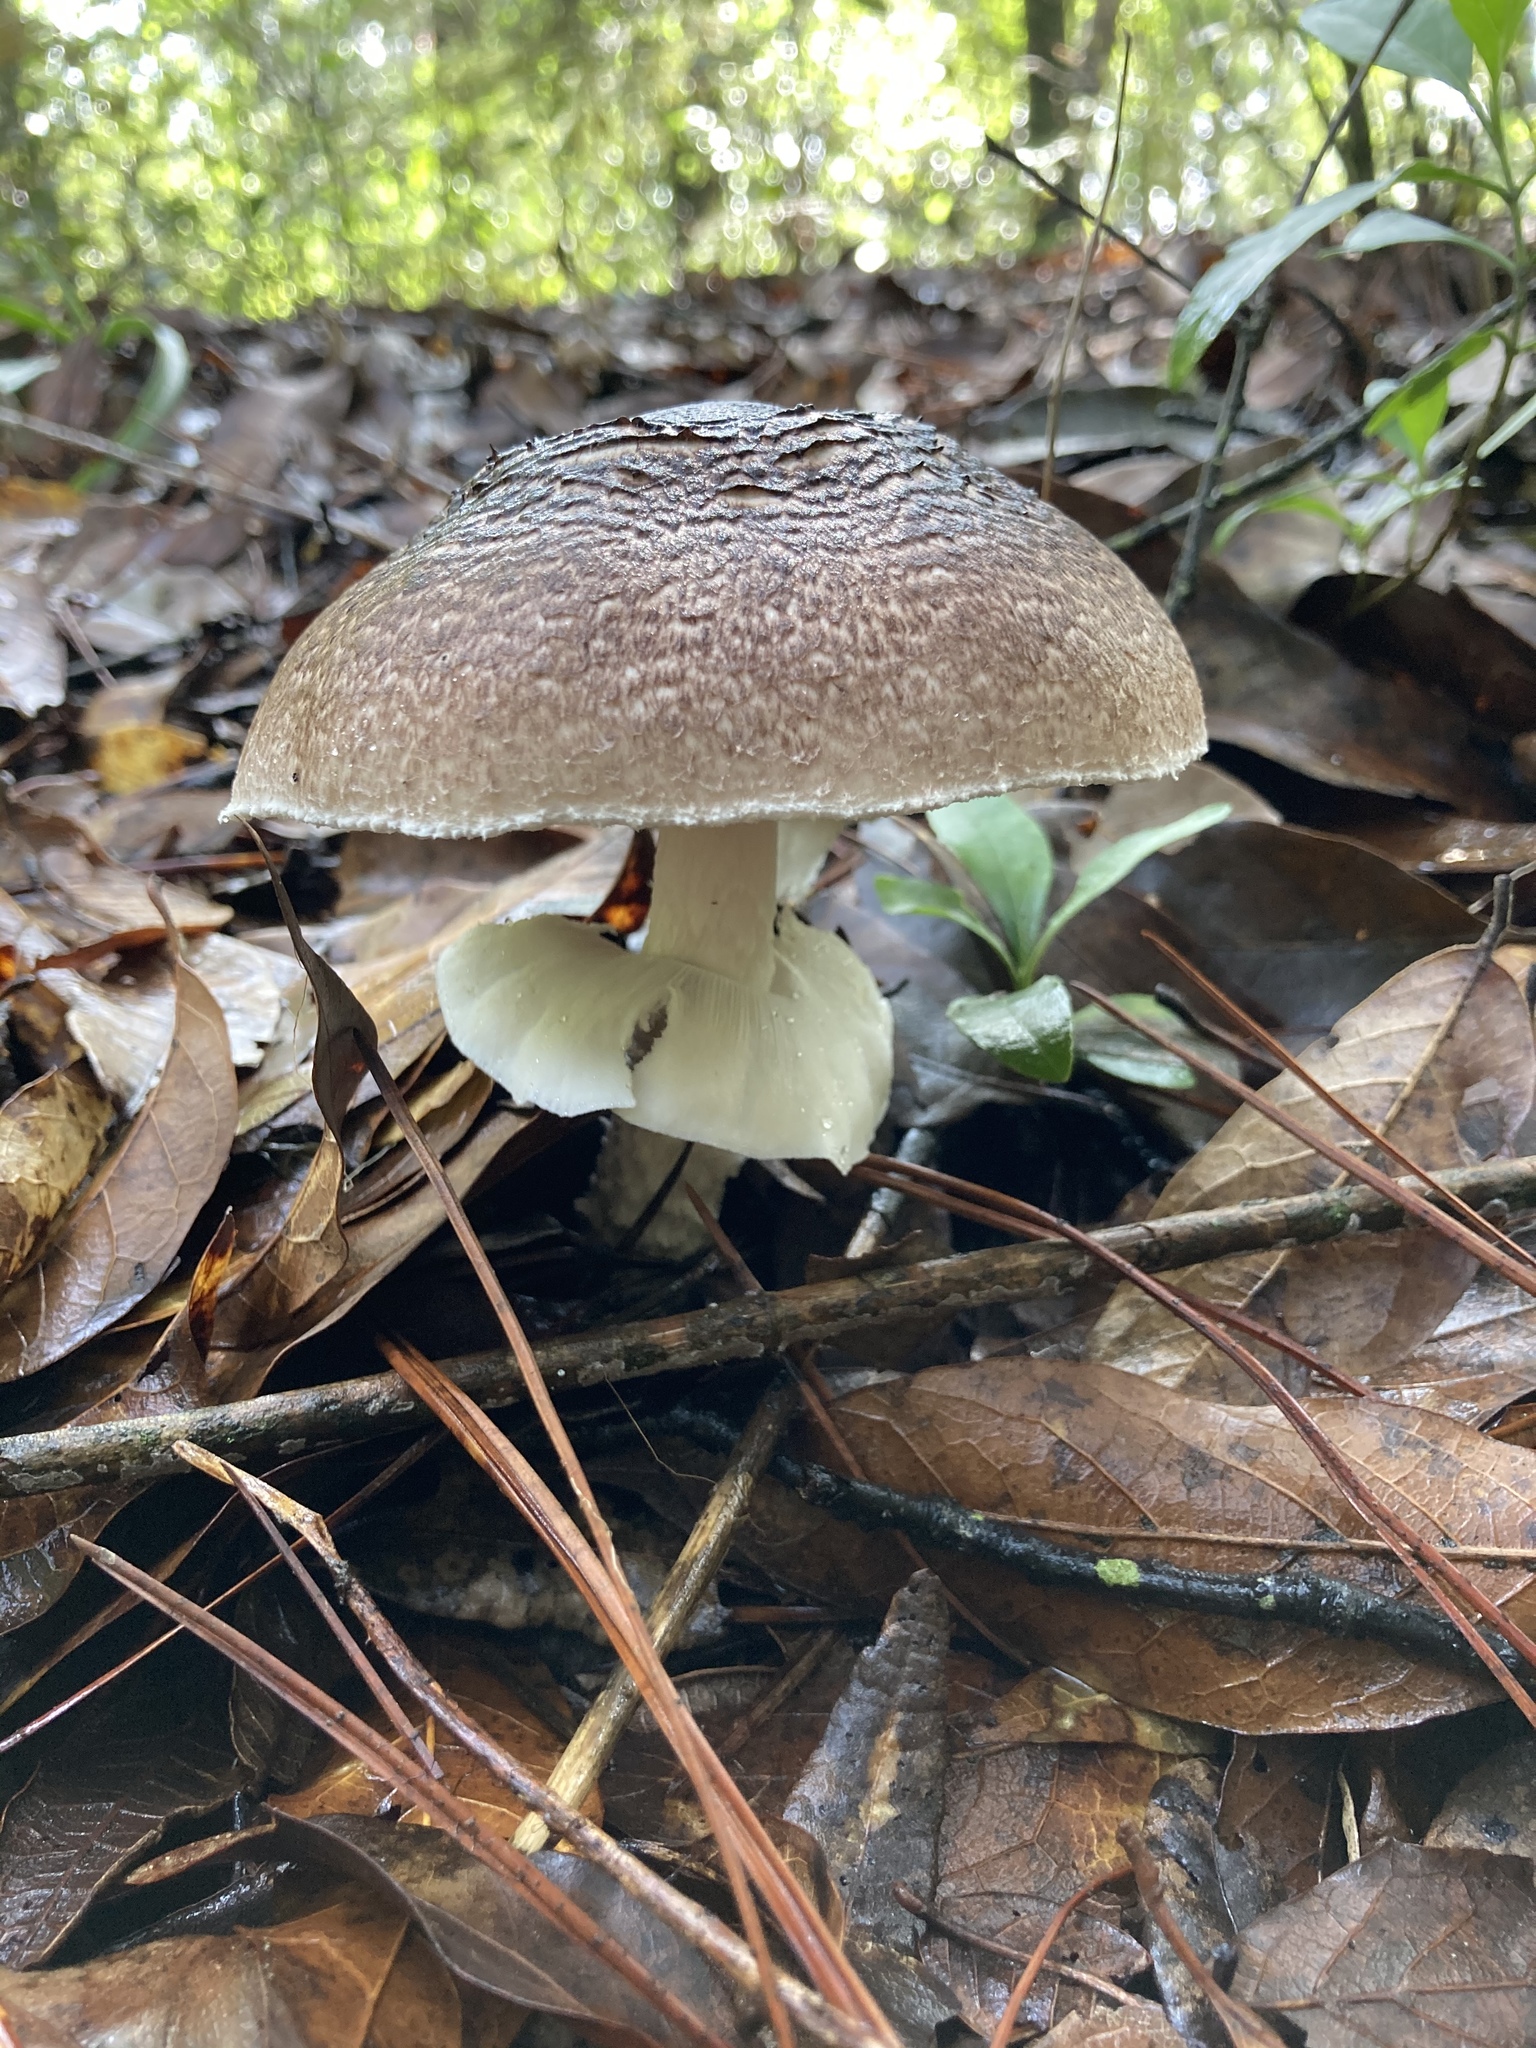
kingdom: Fungi
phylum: Basidiomycota
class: Agaricomycetes
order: Agaricales
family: Agaricaceae
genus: Agaricus
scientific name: Agaricus subrutilescens
